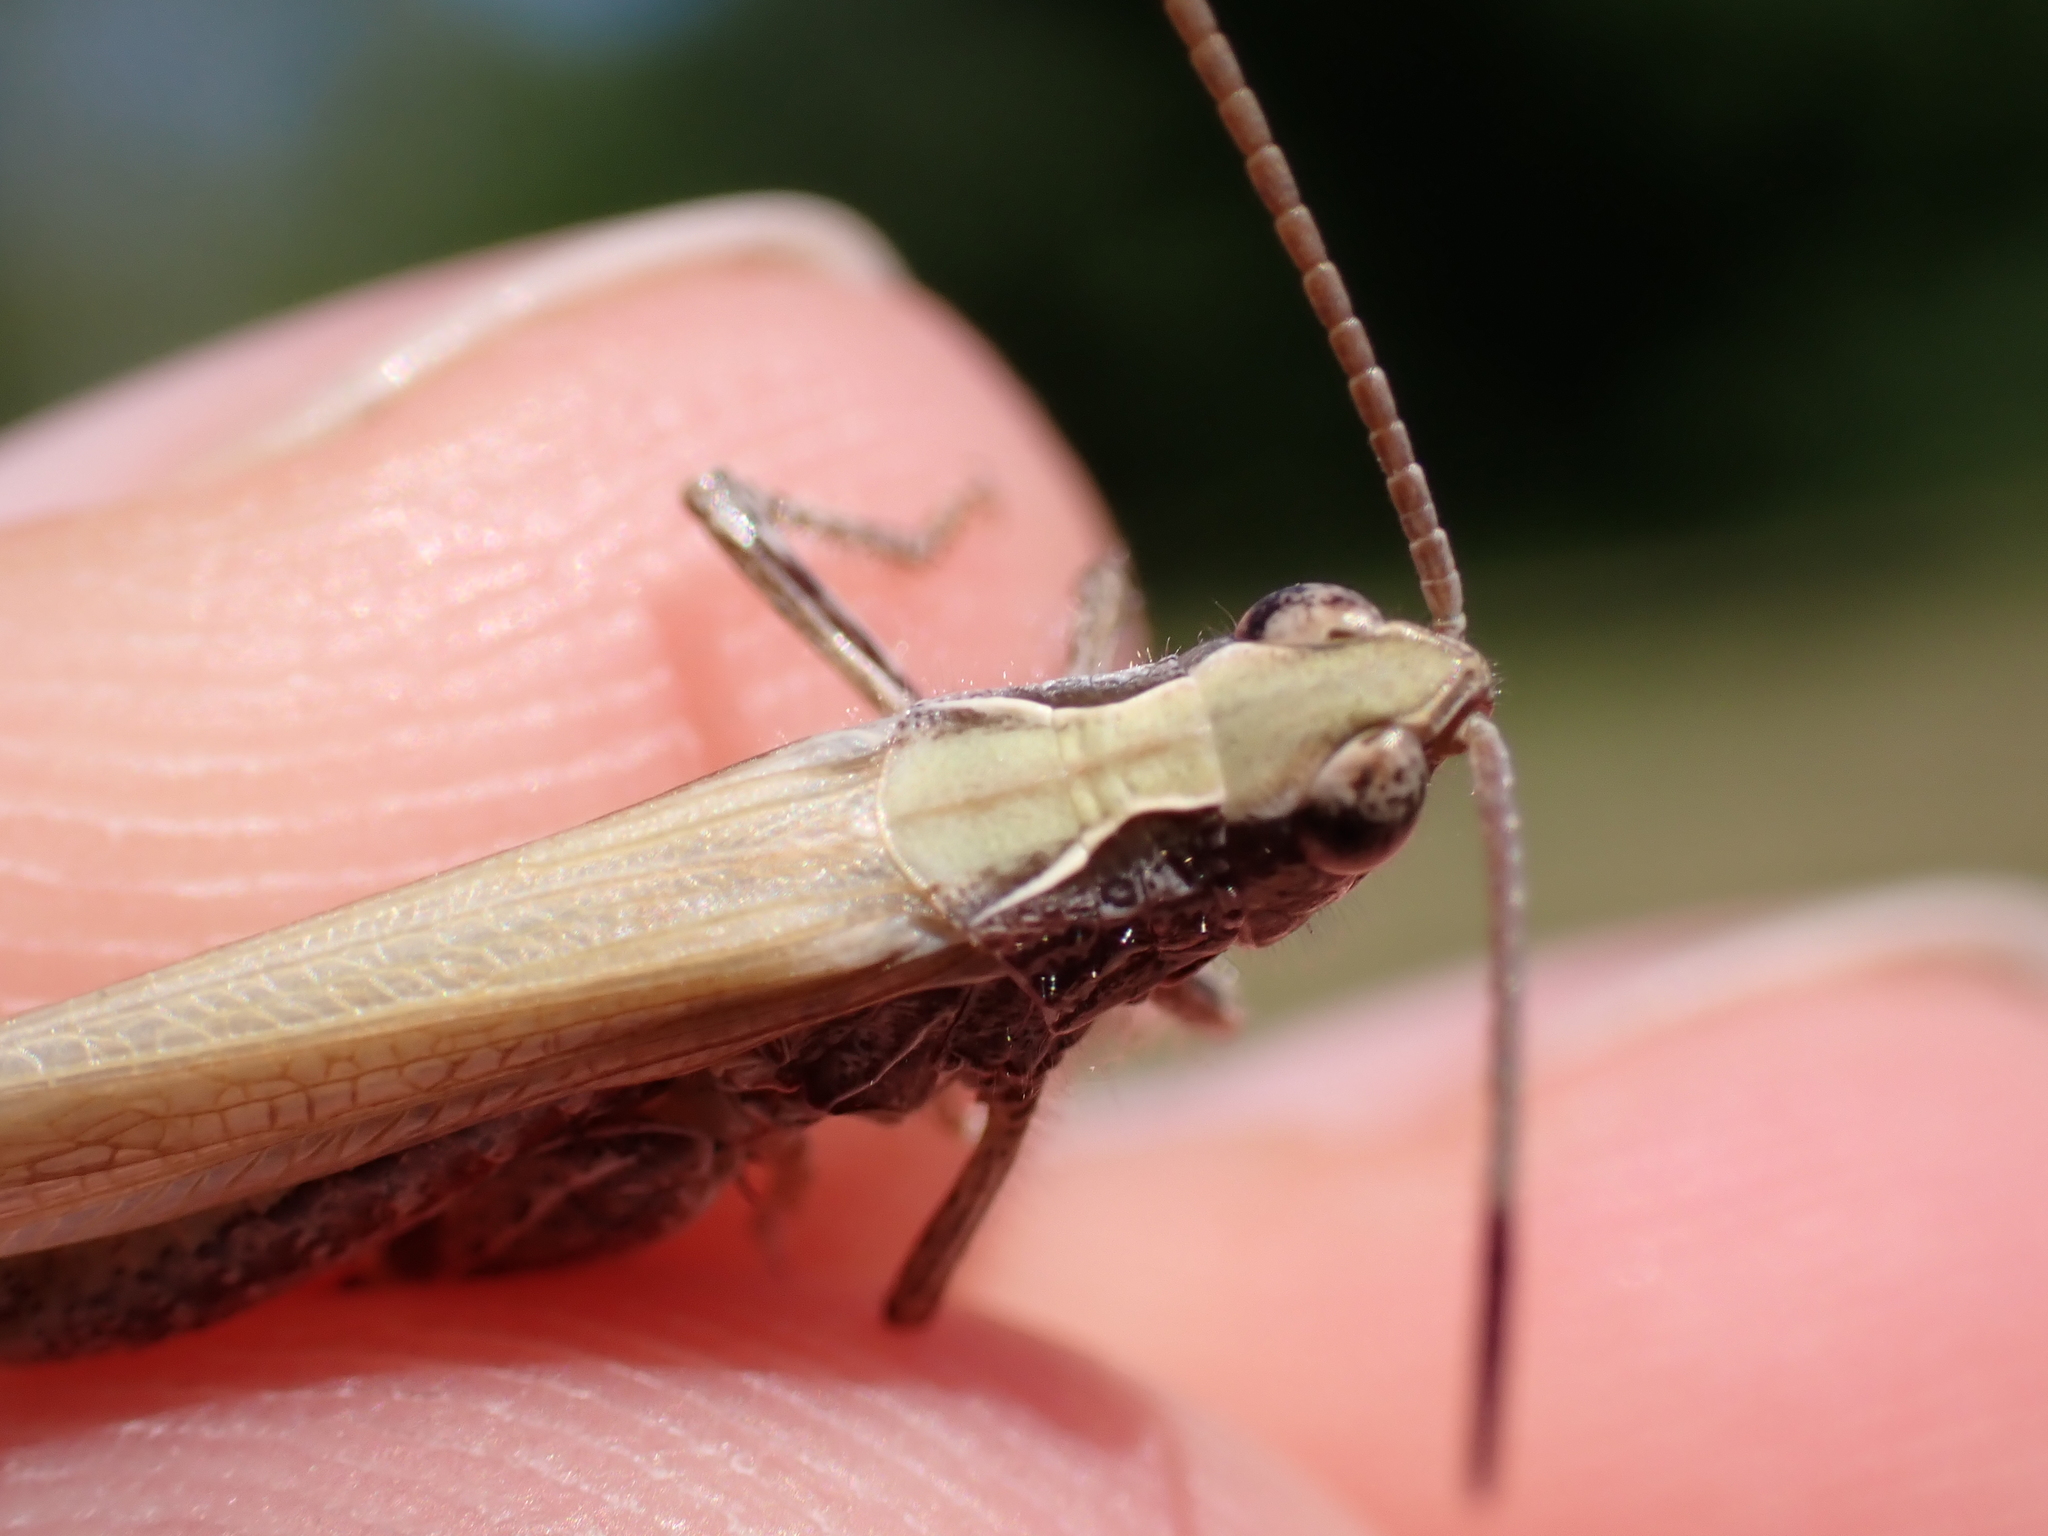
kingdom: Animalia
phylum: Arthropoda
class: Insecta
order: Orthoptera
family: Acrididae
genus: Chorthippus
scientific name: Chorthippus brunneus
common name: Field grasshopper
